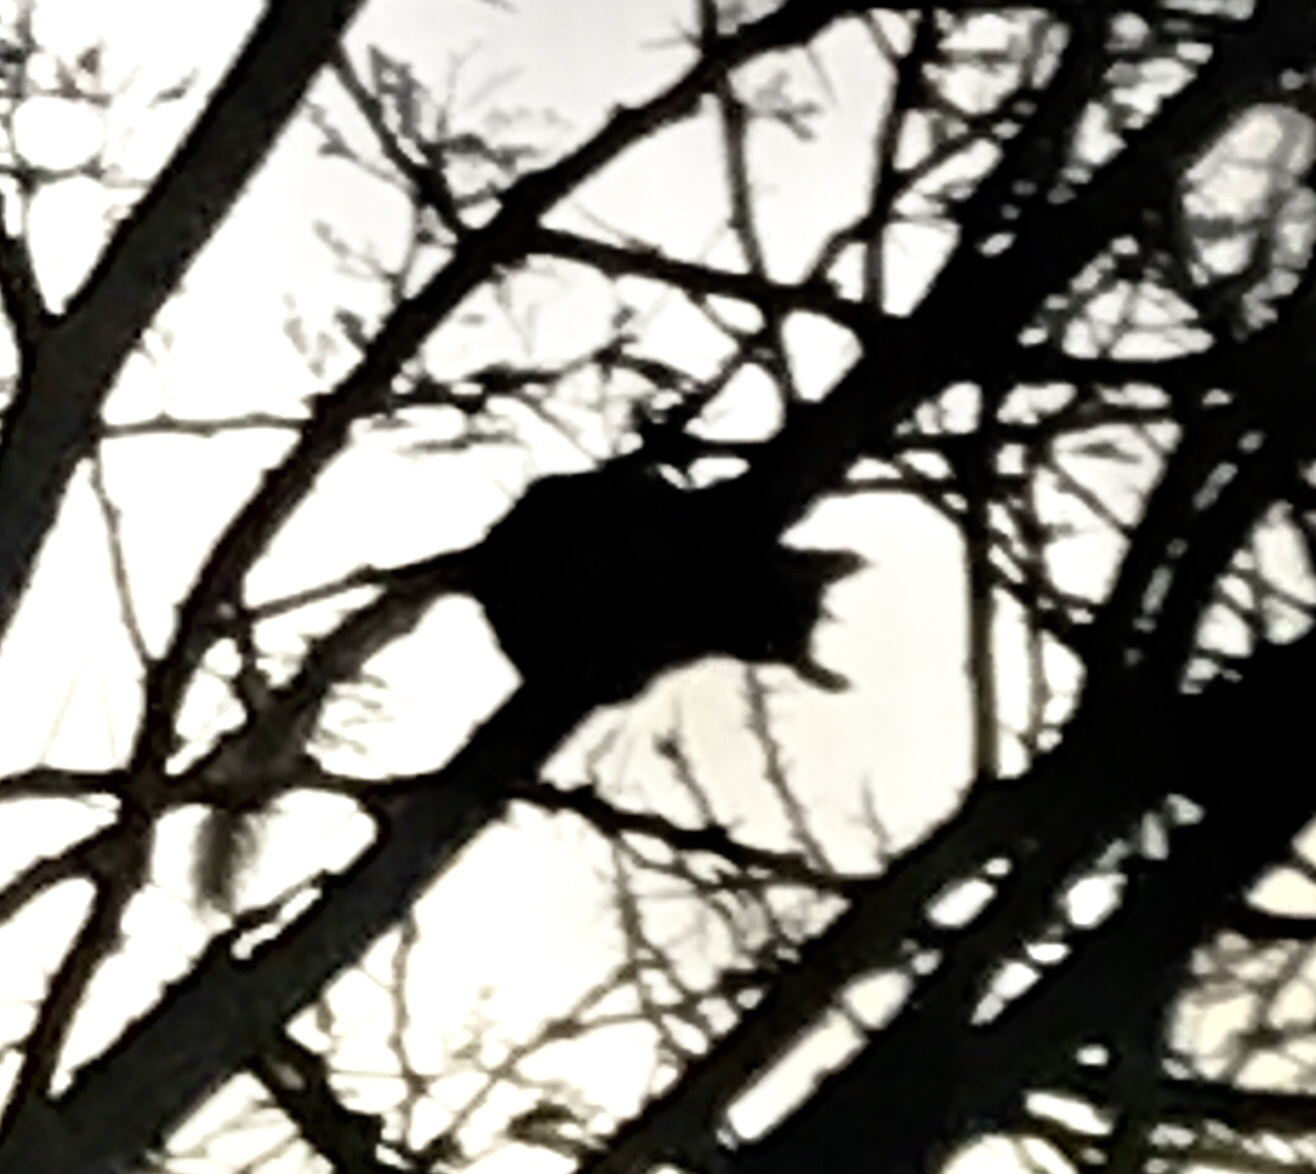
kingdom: Animalia
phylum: Chordata
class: Mammalia
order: Primates
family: Galagidae
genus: Galago
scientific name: Galago moholi
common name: Moholi bushbaby
